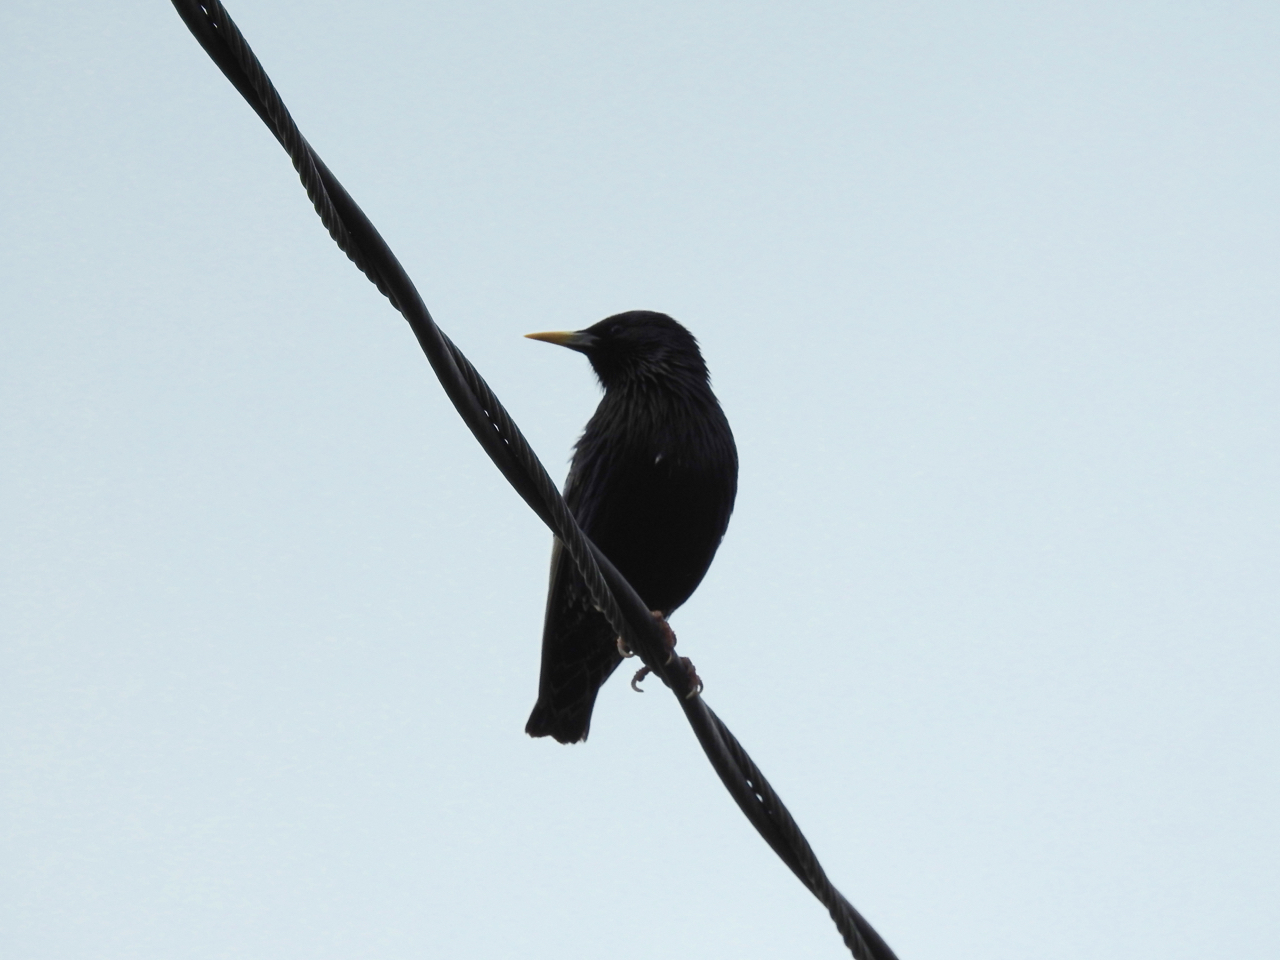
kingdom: Animalia
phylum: Chordata
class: Aves
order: Passeriformes
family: Sturnidae
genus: Sturnus
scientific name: Sturnus vulgaris
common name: Common starling
